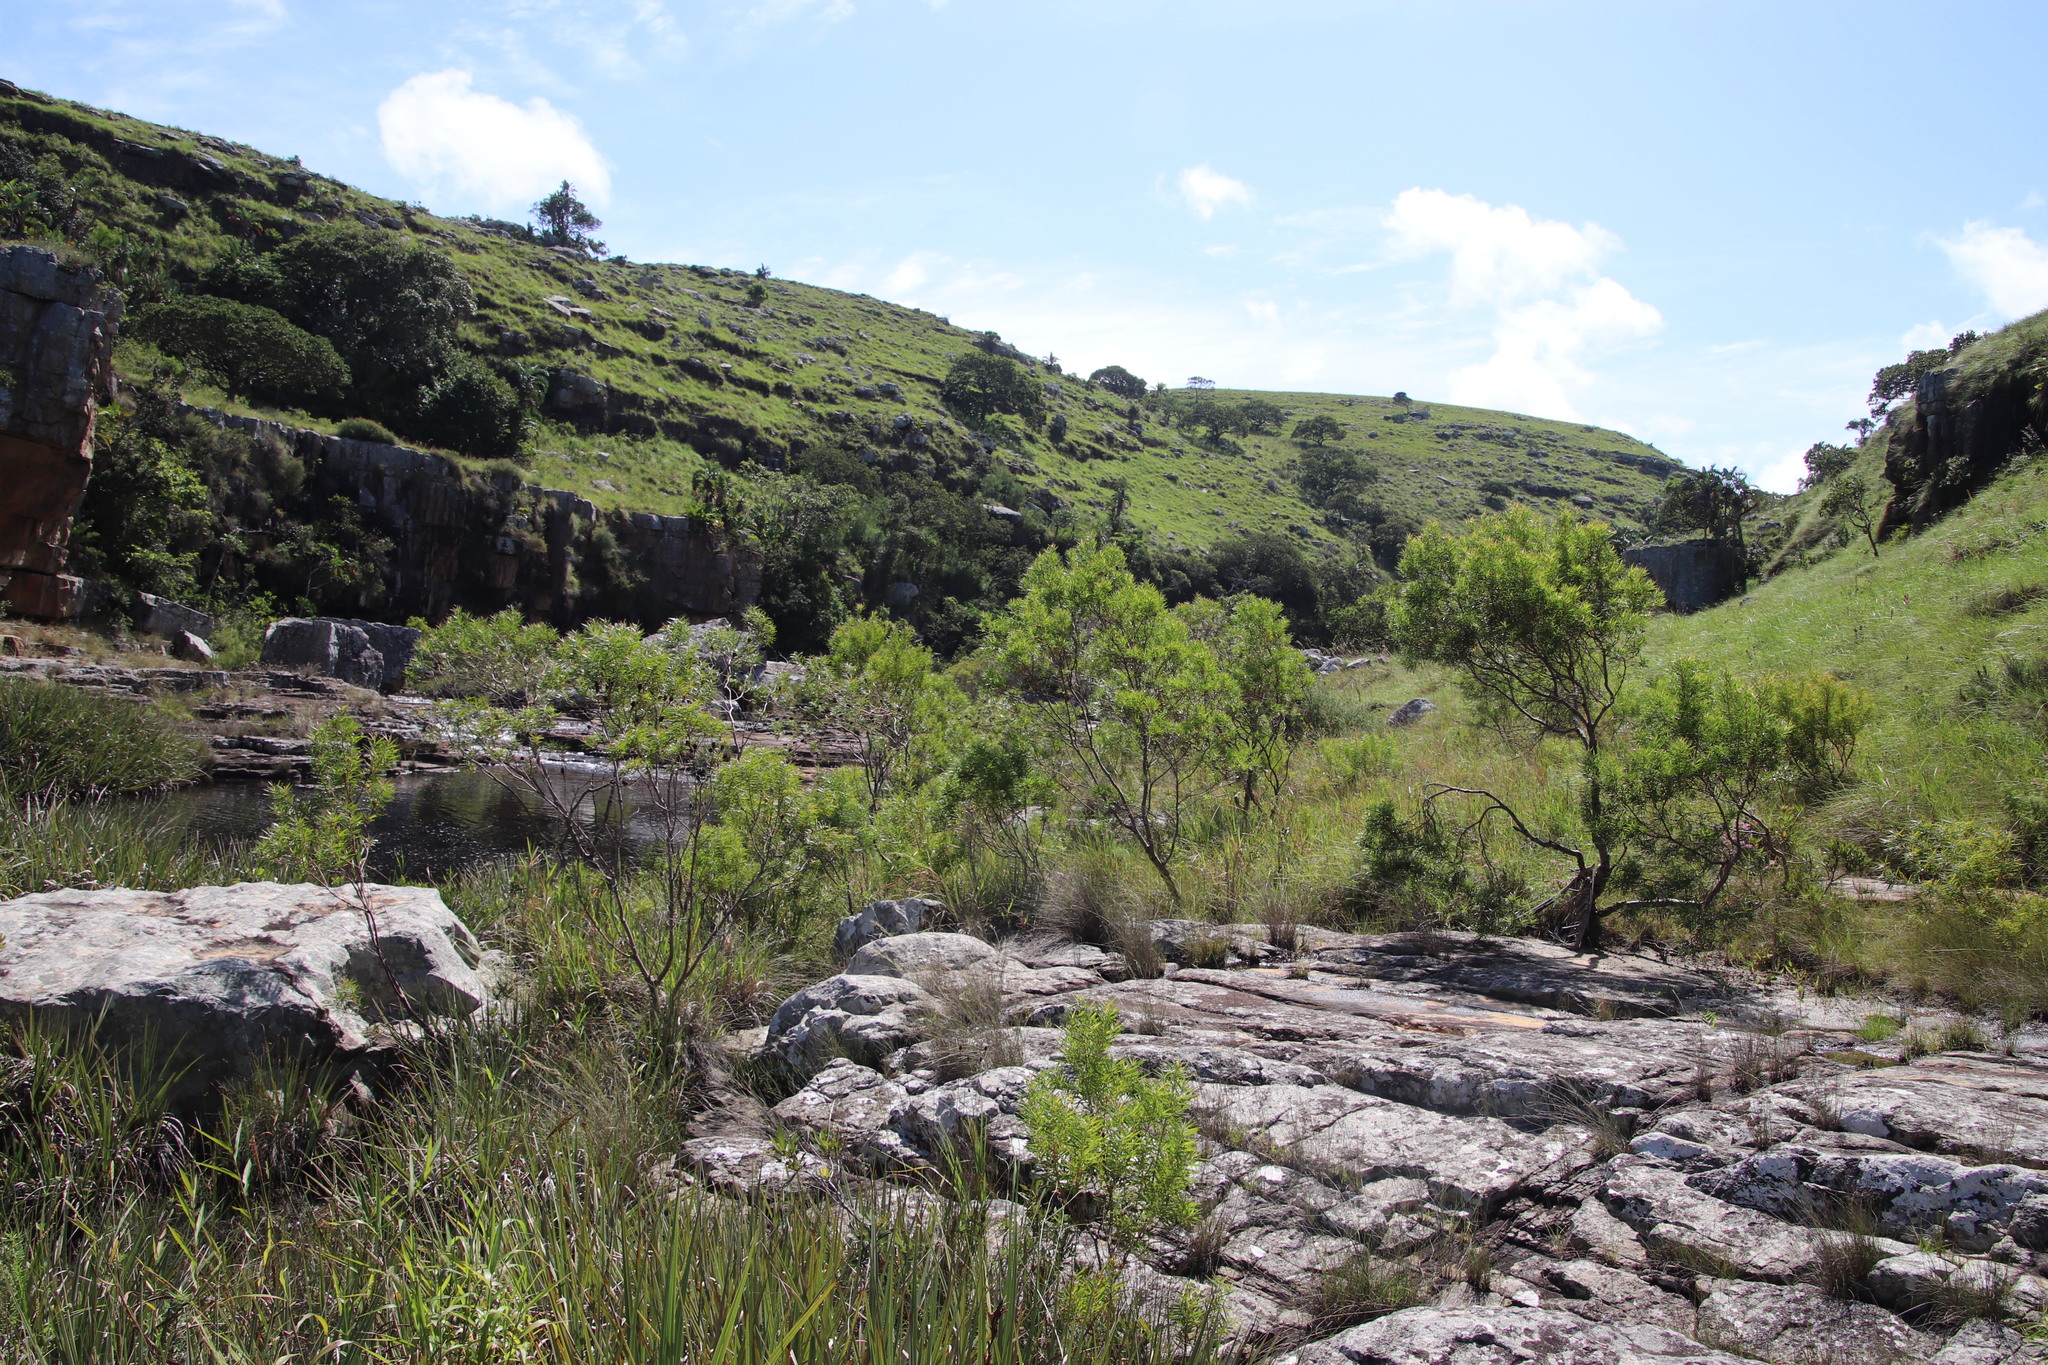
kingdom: Plantae
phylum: Tracheophyta
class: Magnoliopsida
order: Proteales
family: Proteaceae
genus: Leucadendron
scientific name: Leucadendron pondoense
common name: Pondoland conebush
